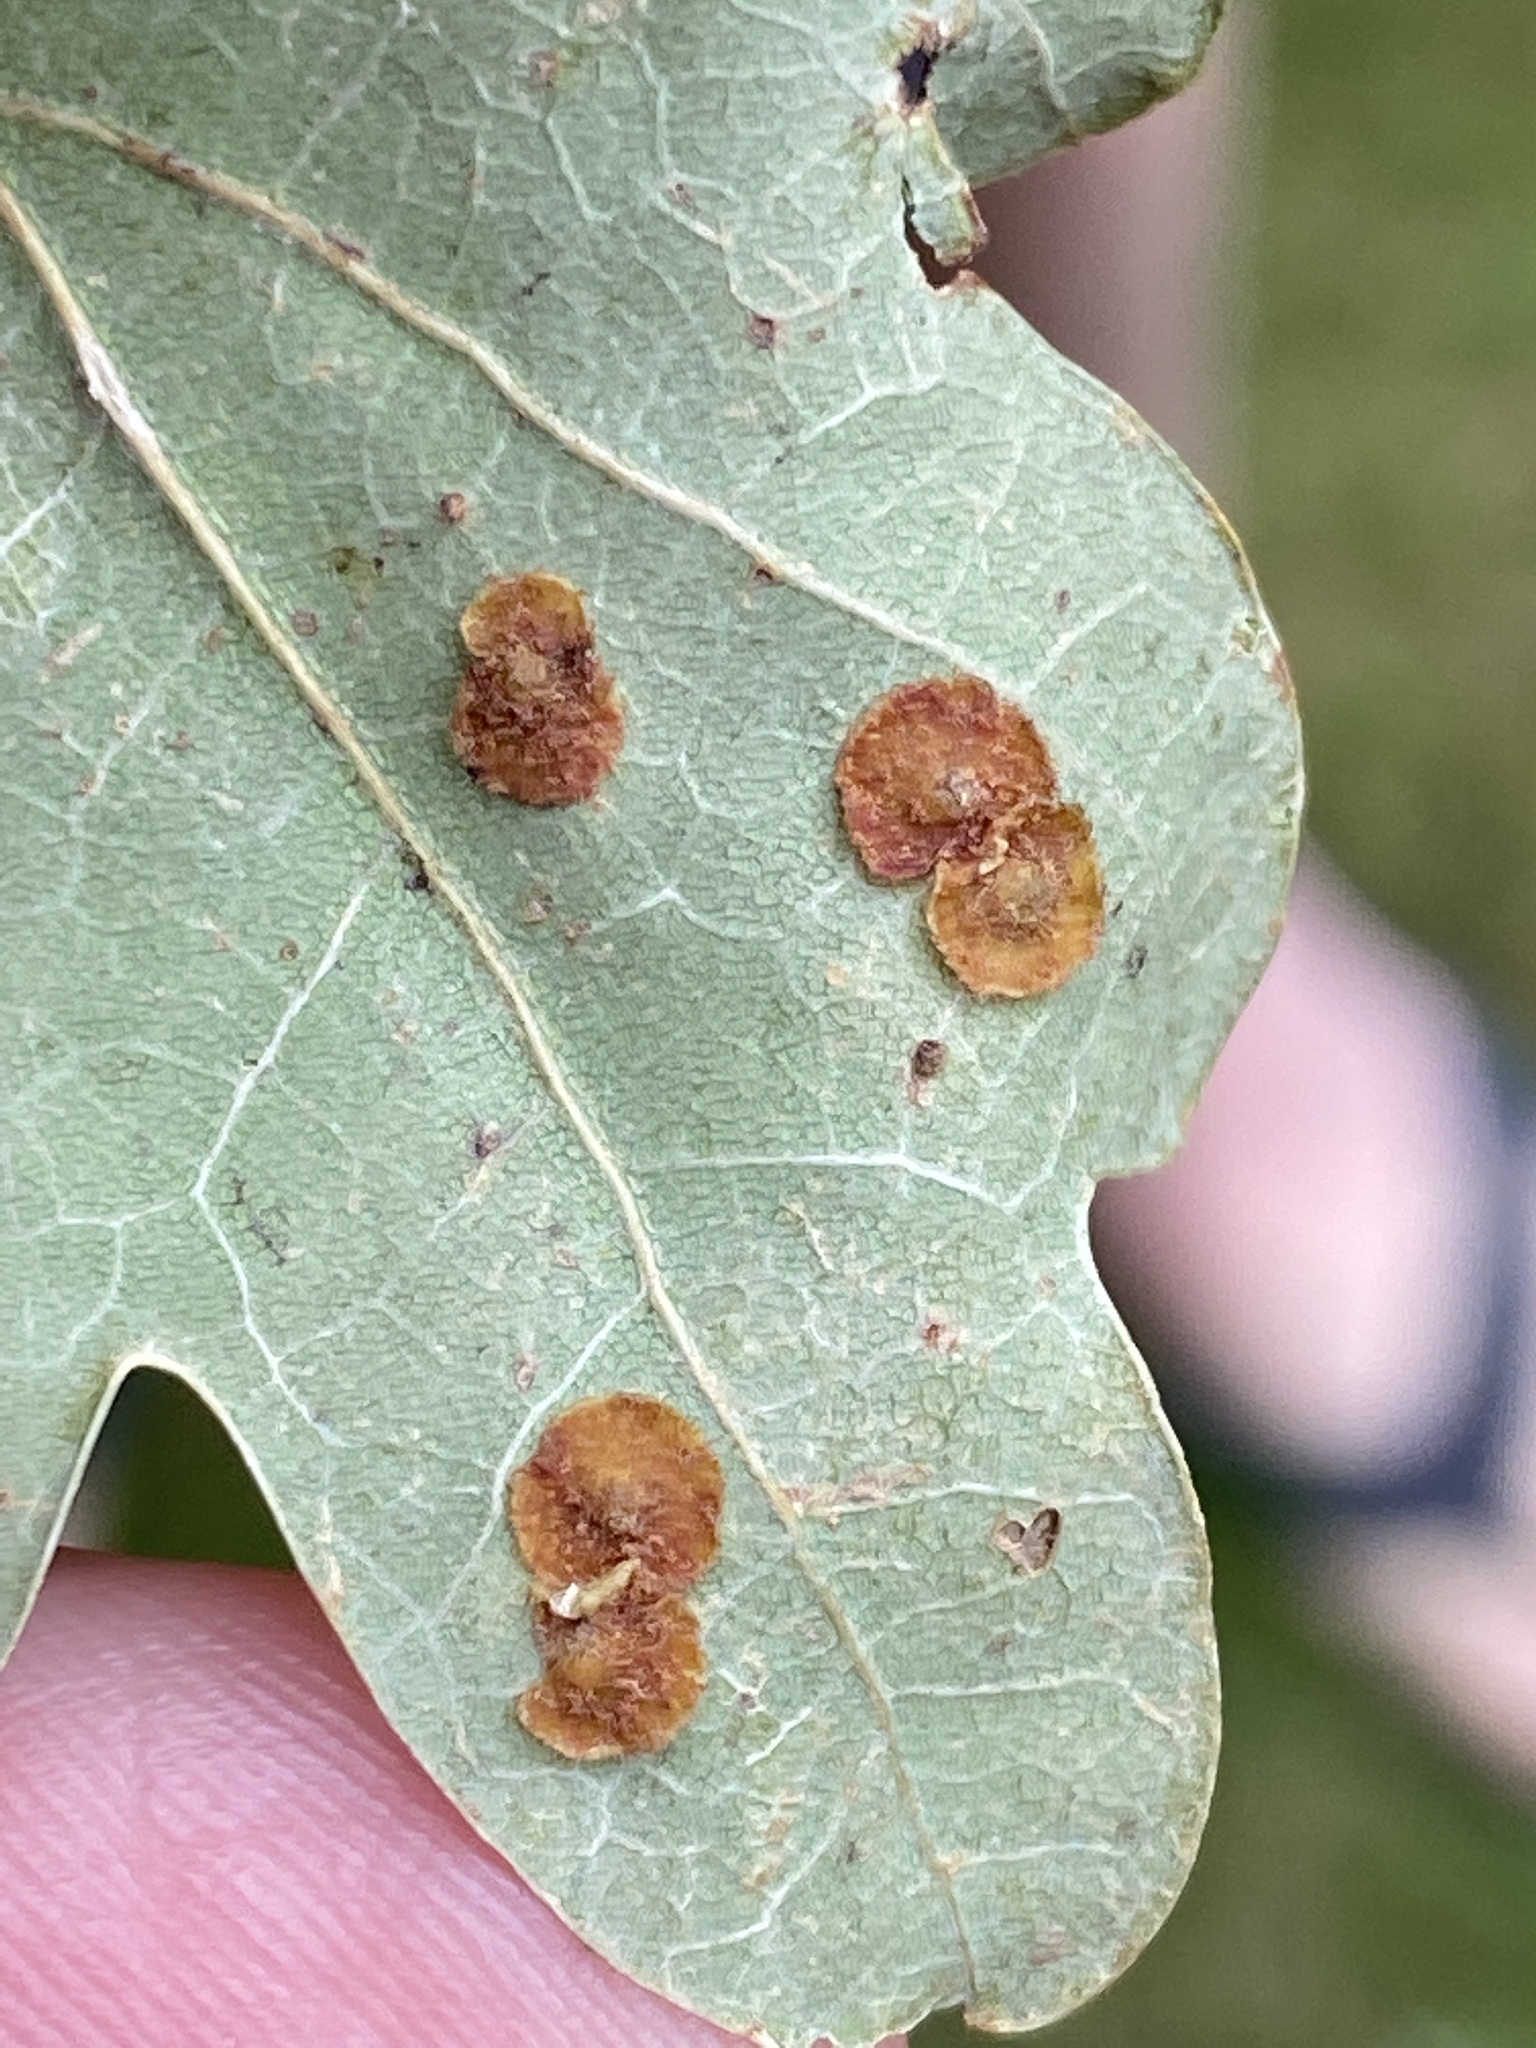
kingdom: Animalia
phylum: Arthropoda
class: Insecta
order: Hymenoptera
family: Cynipidae
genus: Neuroterus
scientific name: Neuroterus quercusbaccarum
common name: Common spangle gall
